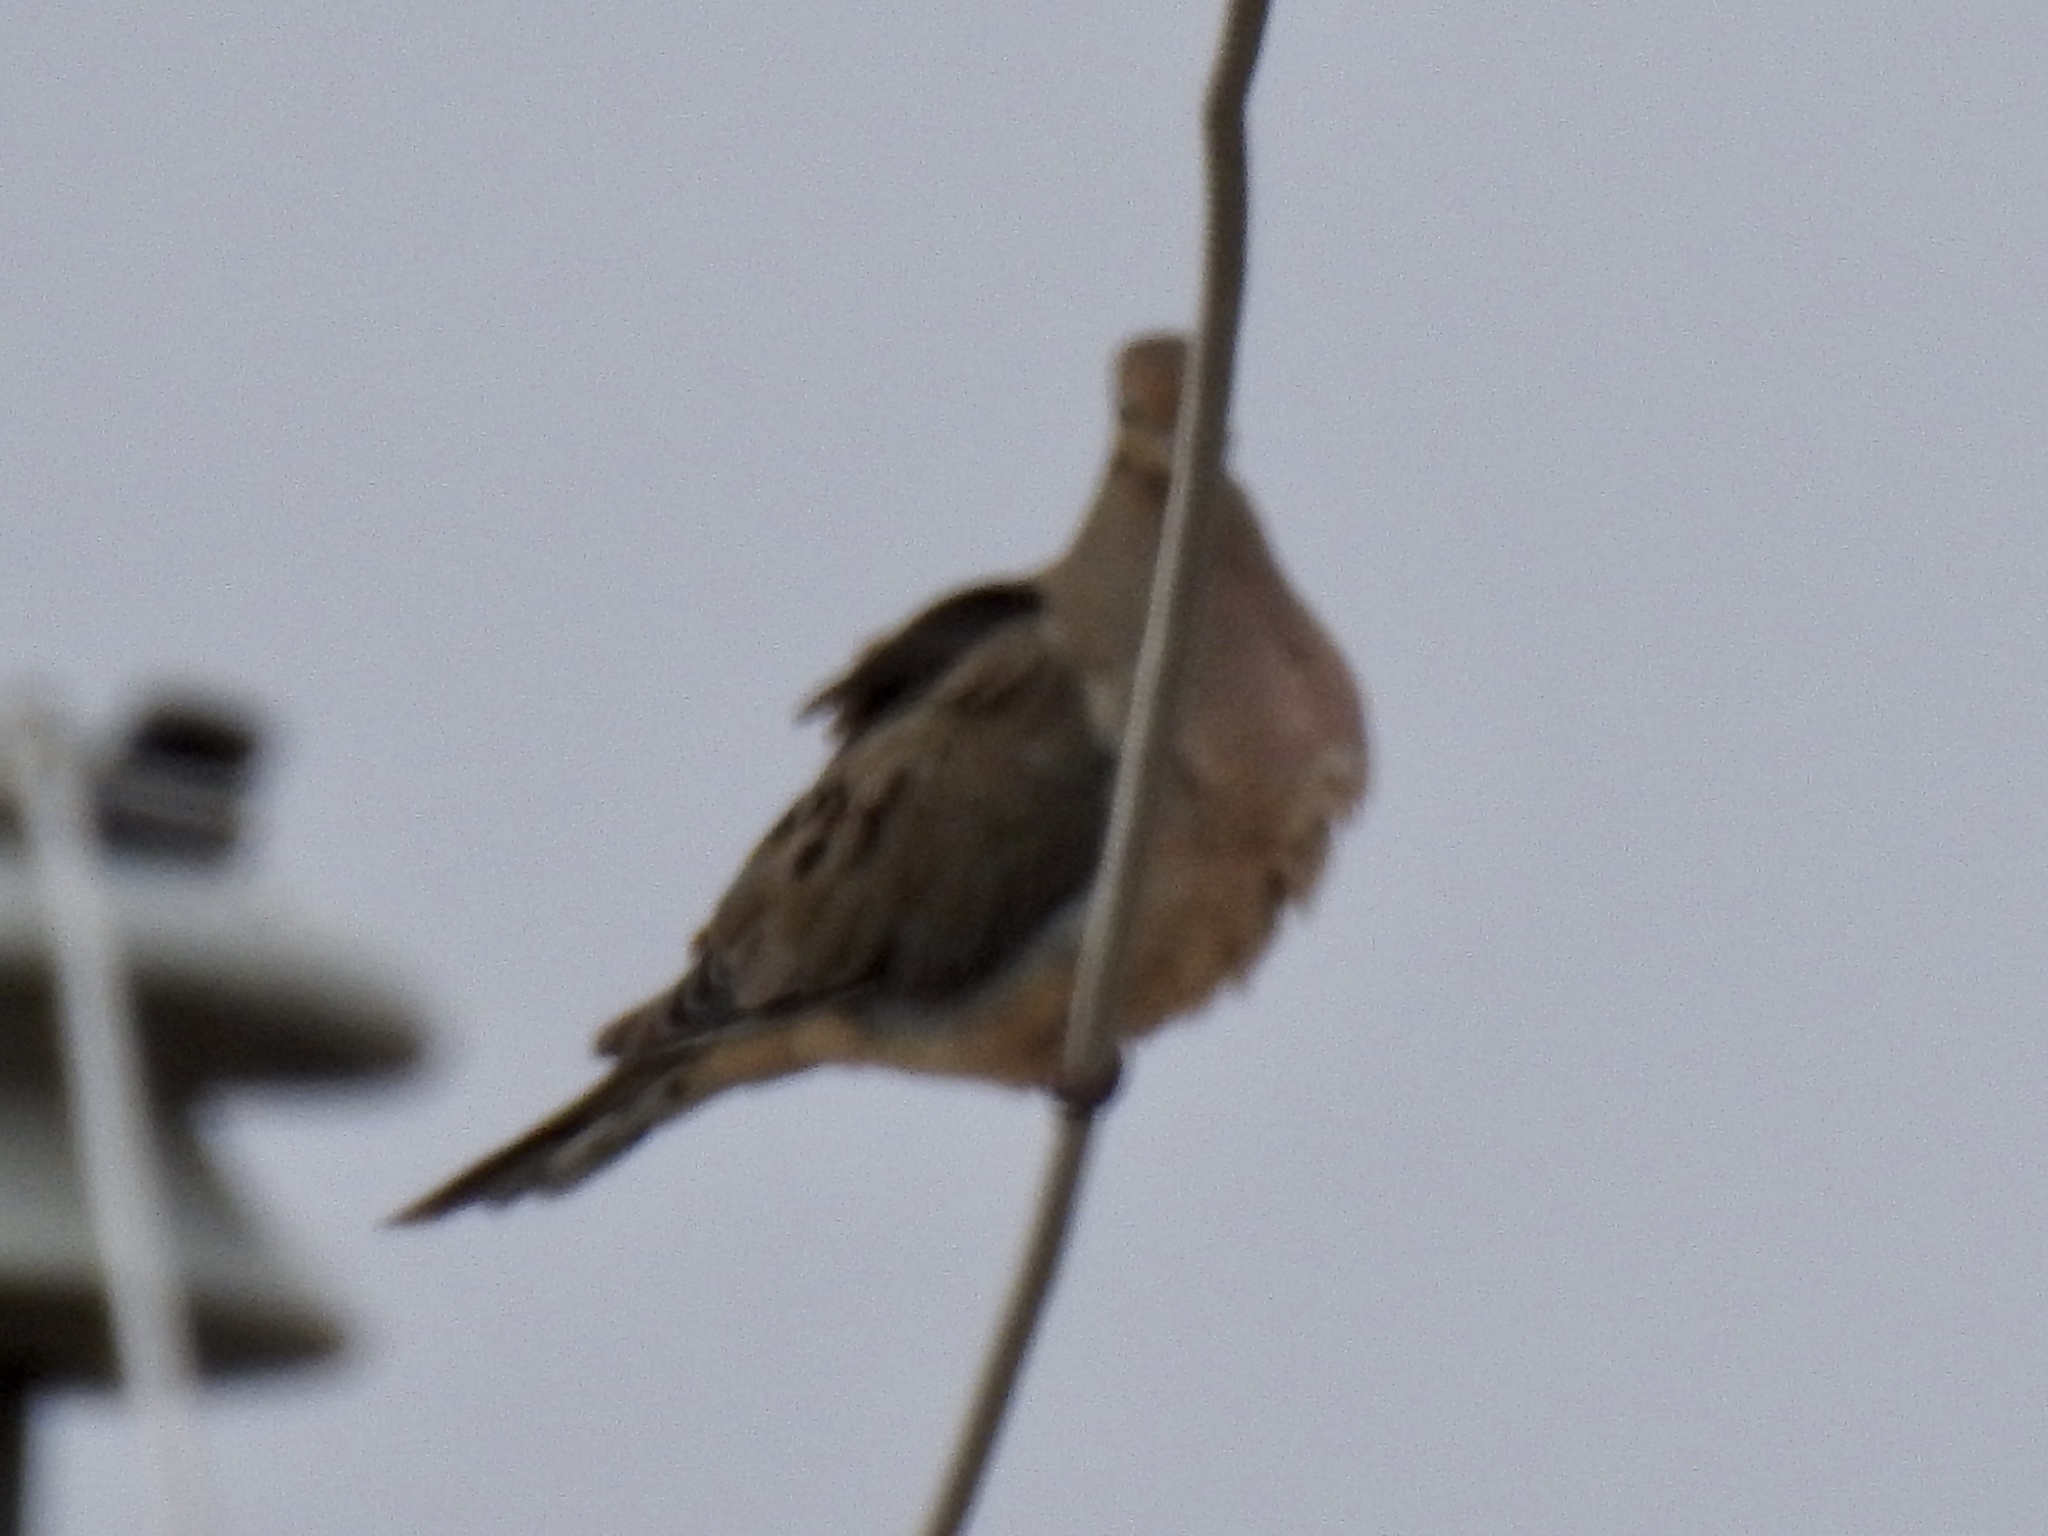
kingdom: Animalia
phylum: Chordata
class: Aves
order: Columbiformes
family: Columbidae
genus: Zenaida
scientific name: Zenaida macroura
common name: Mourning dove
